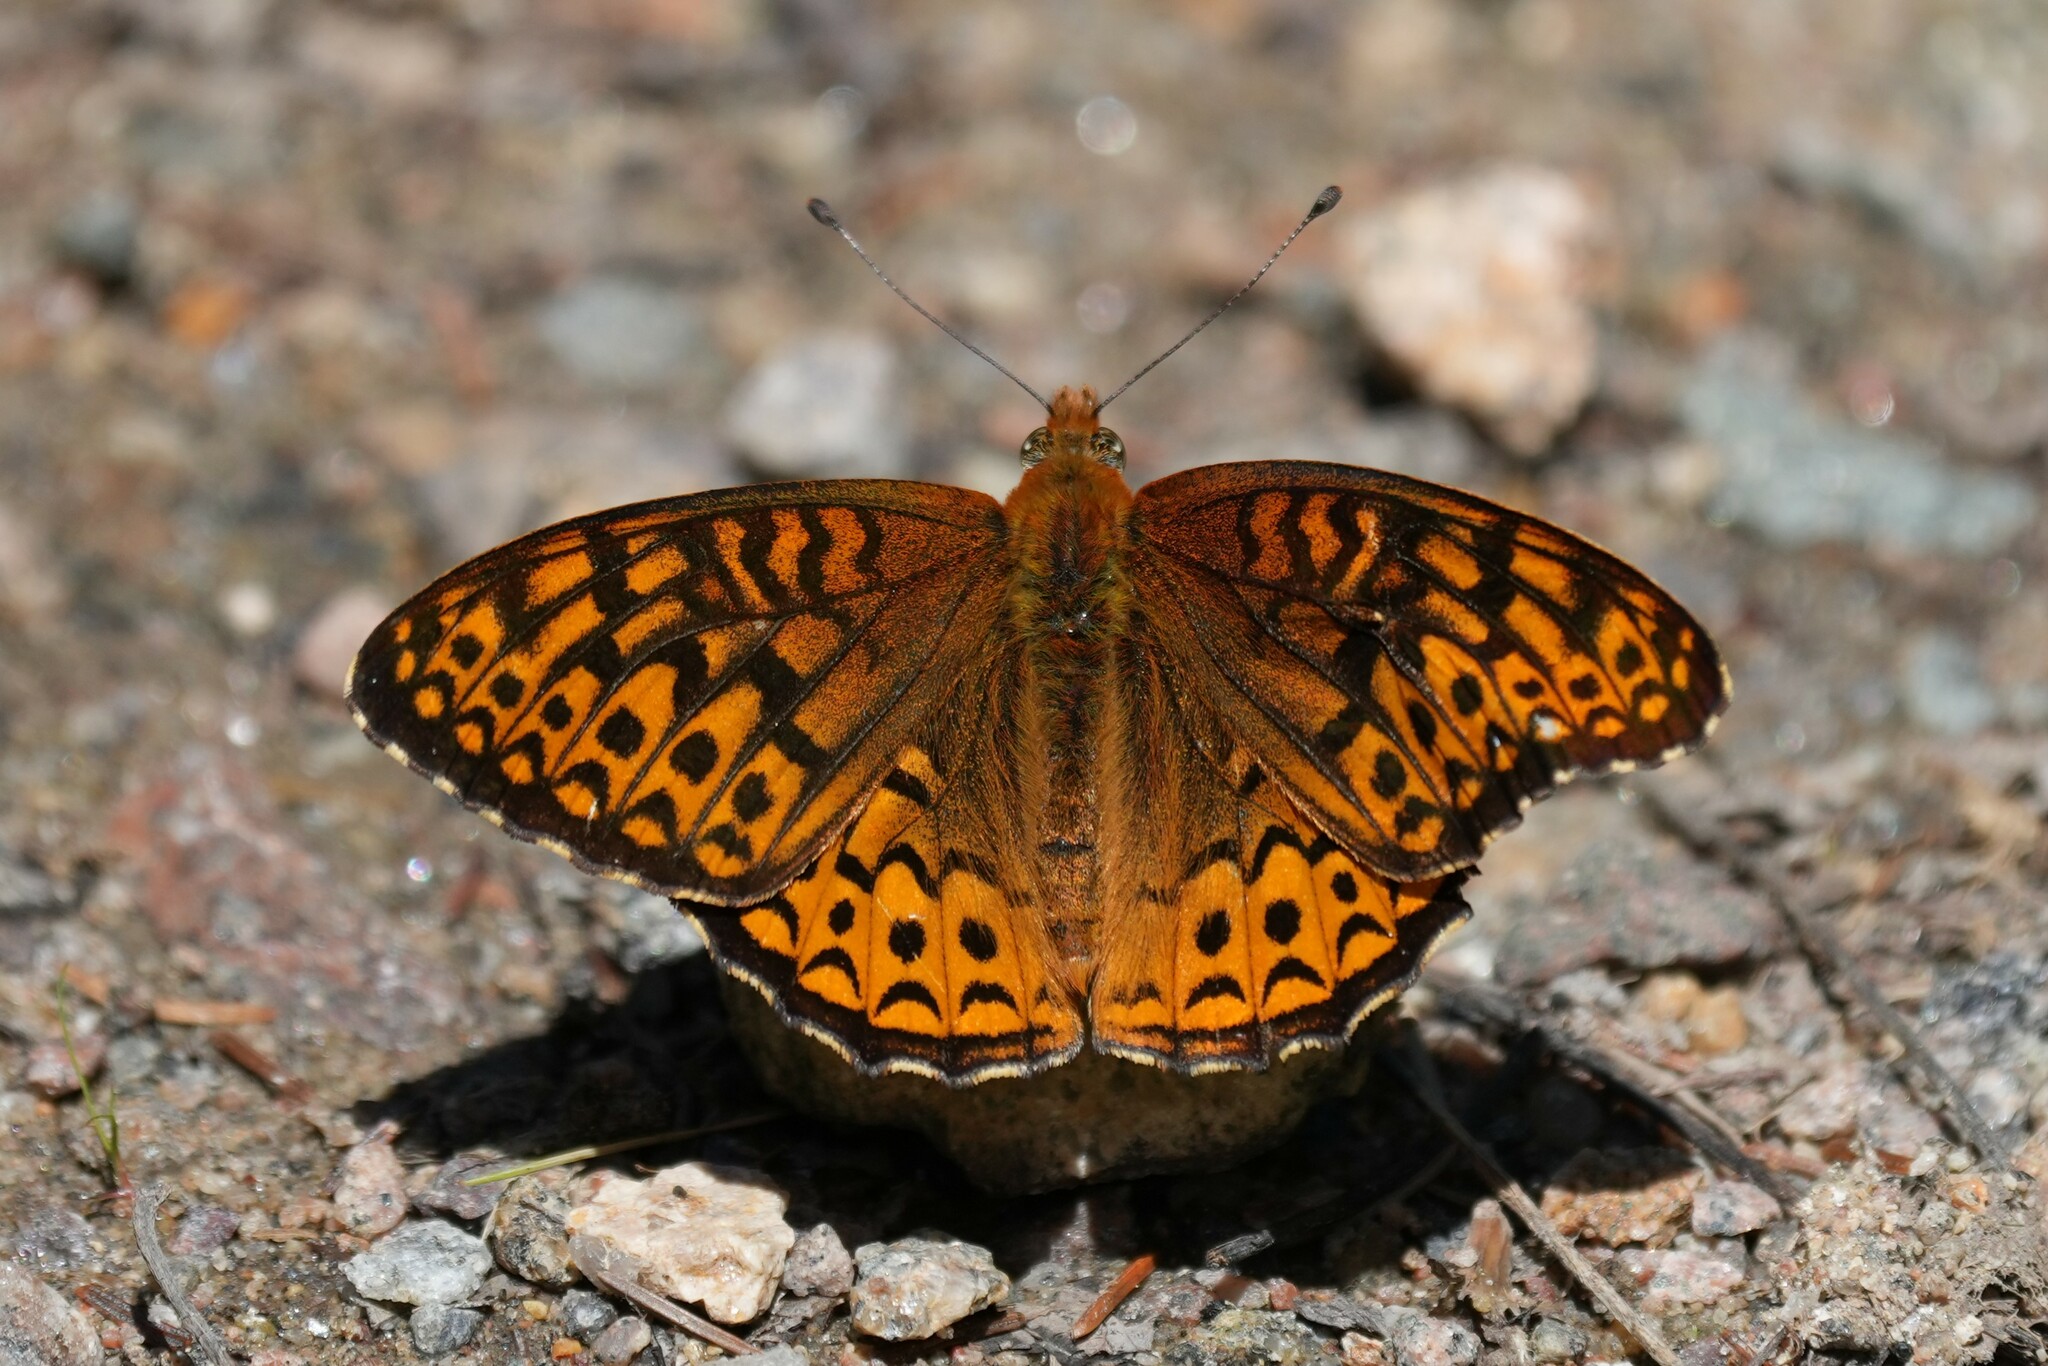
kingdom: Animalia
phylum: Arthropoda
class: Insecta
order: Lepidoptera
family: Nymphalidae
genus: Speyeria
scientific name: Speyeria atlantis
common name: Atlantis fritillary
